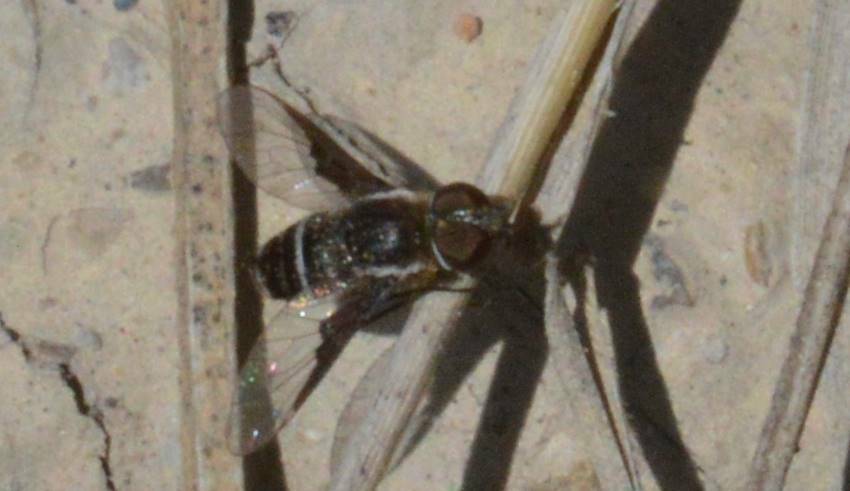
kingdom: Animalia
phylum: Arthropoda
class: Insecta
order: Diptera
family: Bombyliidae
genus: Exhyalanthrax
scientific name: Exhyalanthrax afer
